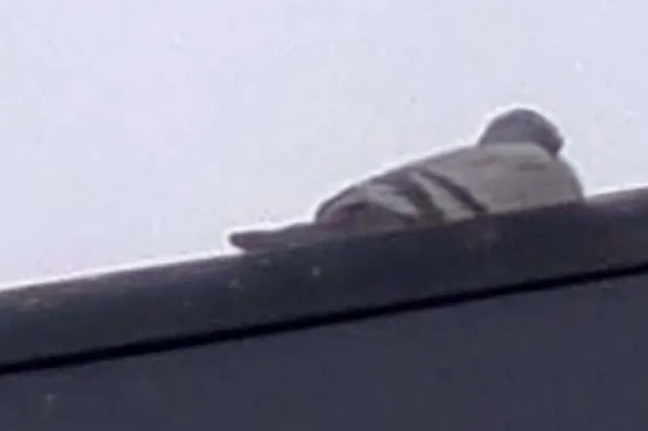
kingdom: Animalia
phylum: Chordata
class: Aves
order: Columbiformes
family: Columbidae
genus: Columba
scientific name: Columba livia
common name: Rock pigeon
